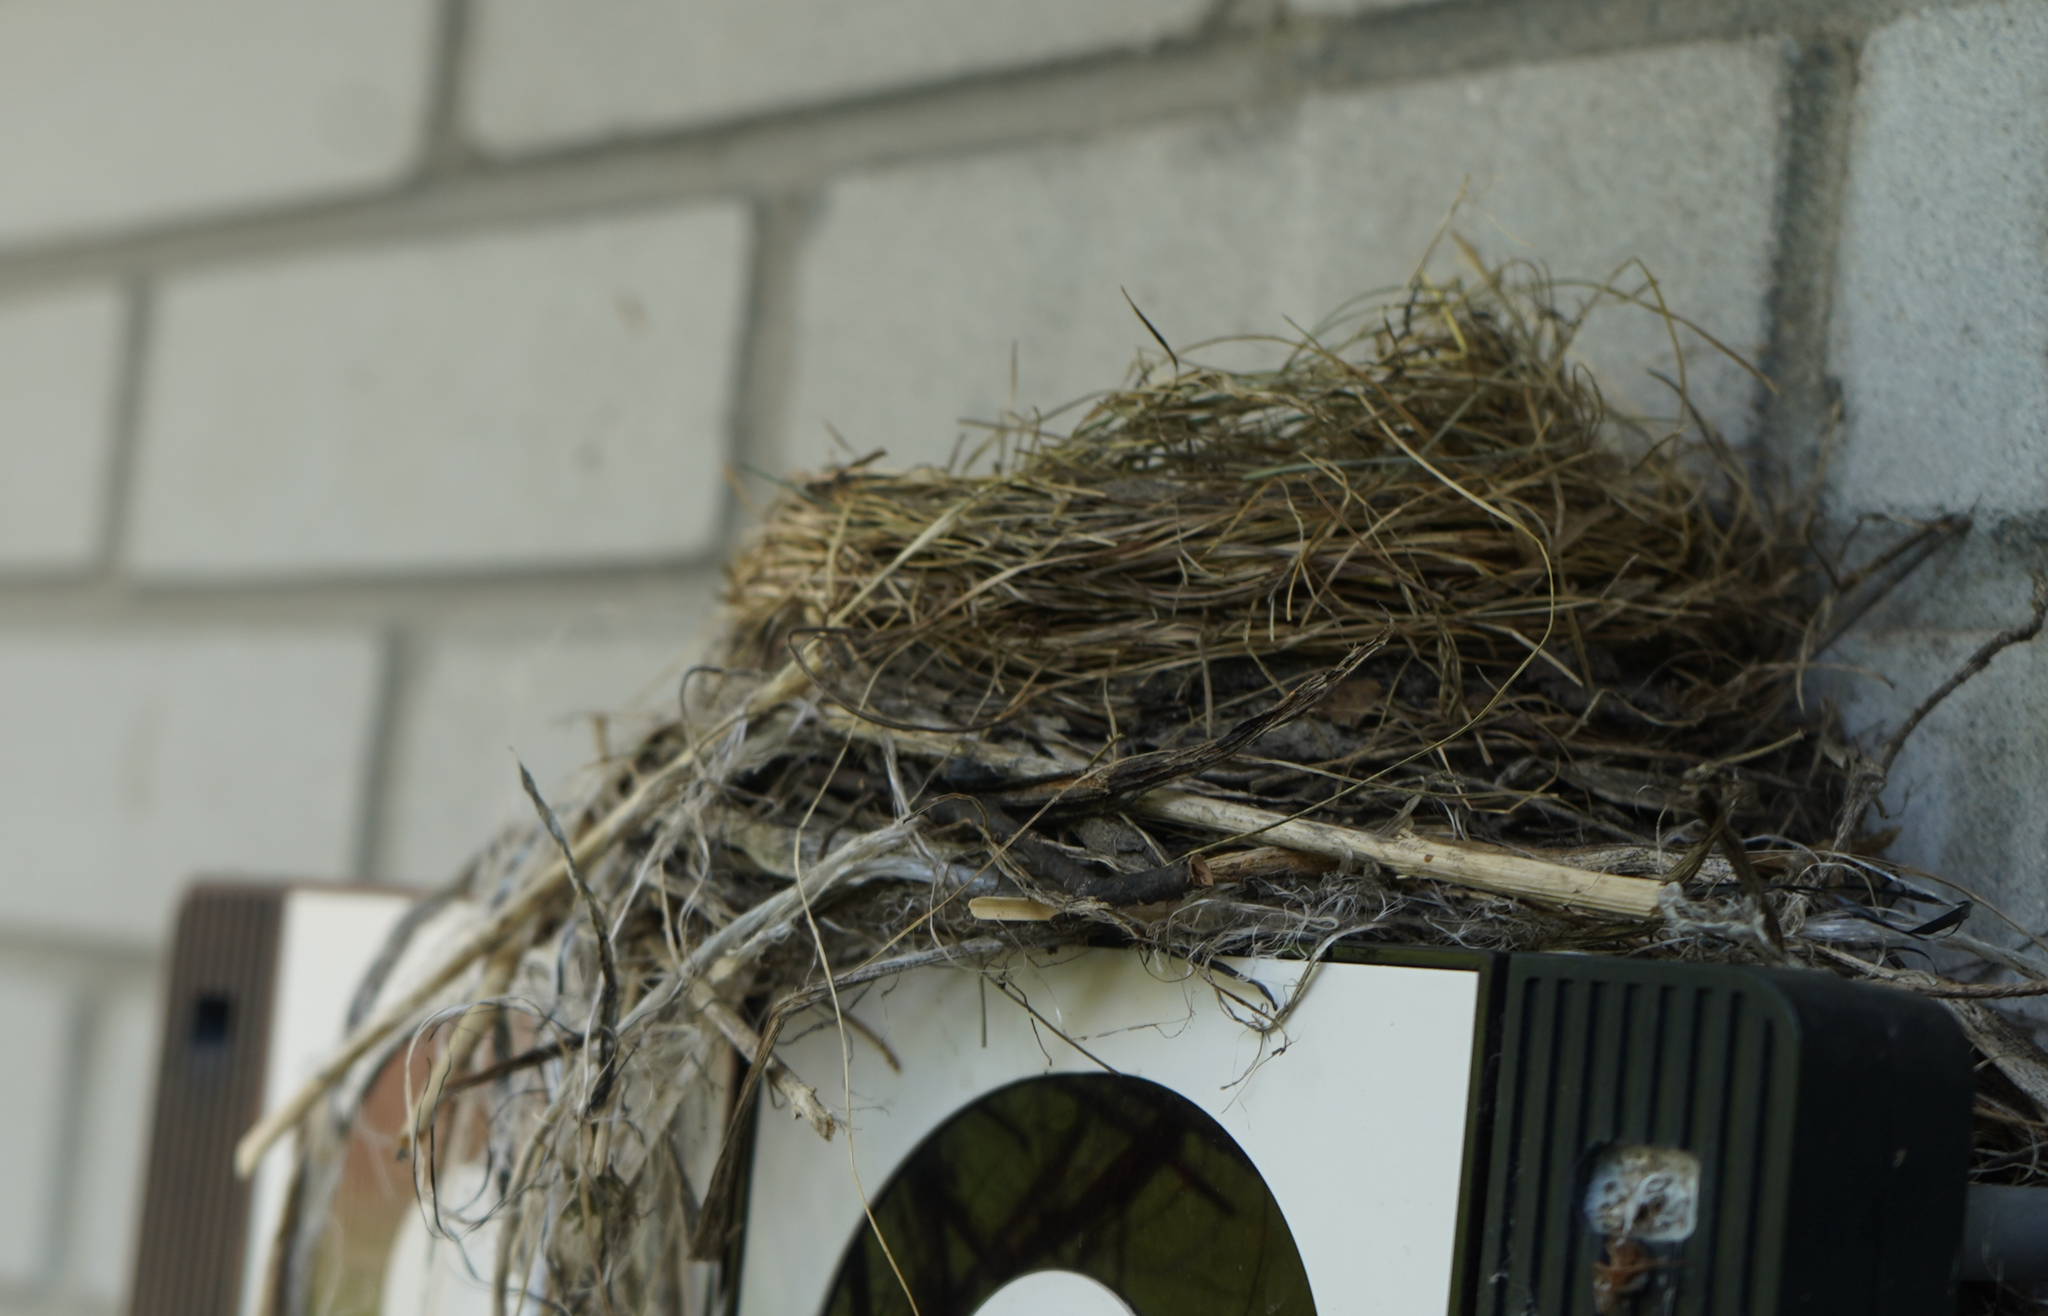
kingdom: Animalia
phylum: Chordata
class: Aves
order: Passeriformes
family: Turdidae
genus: Turdus
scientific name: Turdus migratorius
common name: American robin
